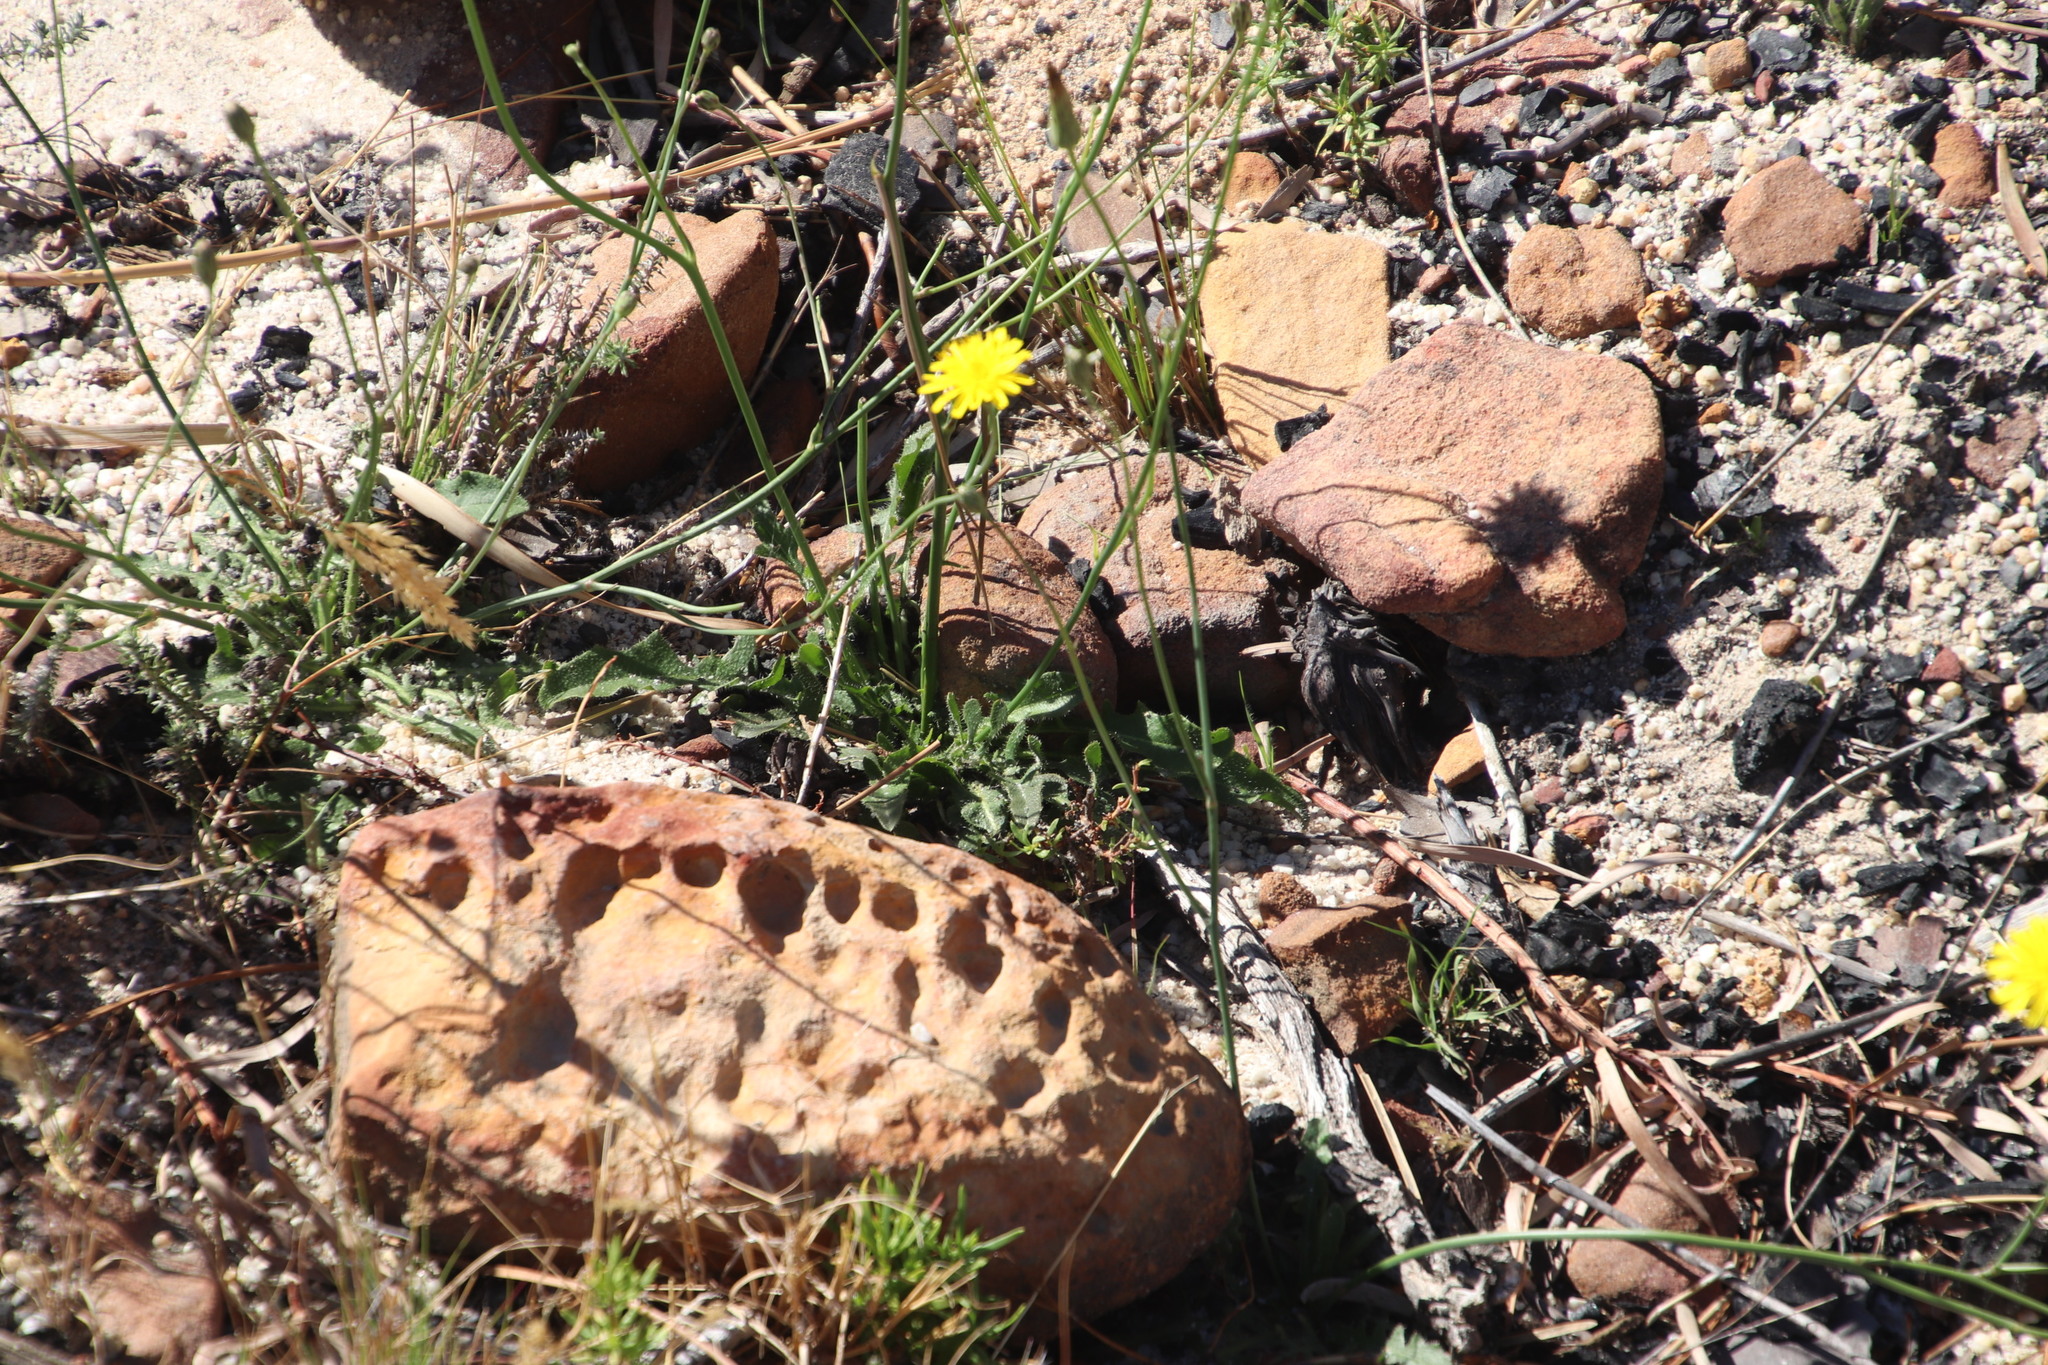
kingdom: Plantae
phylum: Tracheophyta
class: Magnoliopsida
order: Asterales
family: Asteraceae
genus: Hypochaeris
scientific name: Hypochaeris radicata
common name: Flatweed
